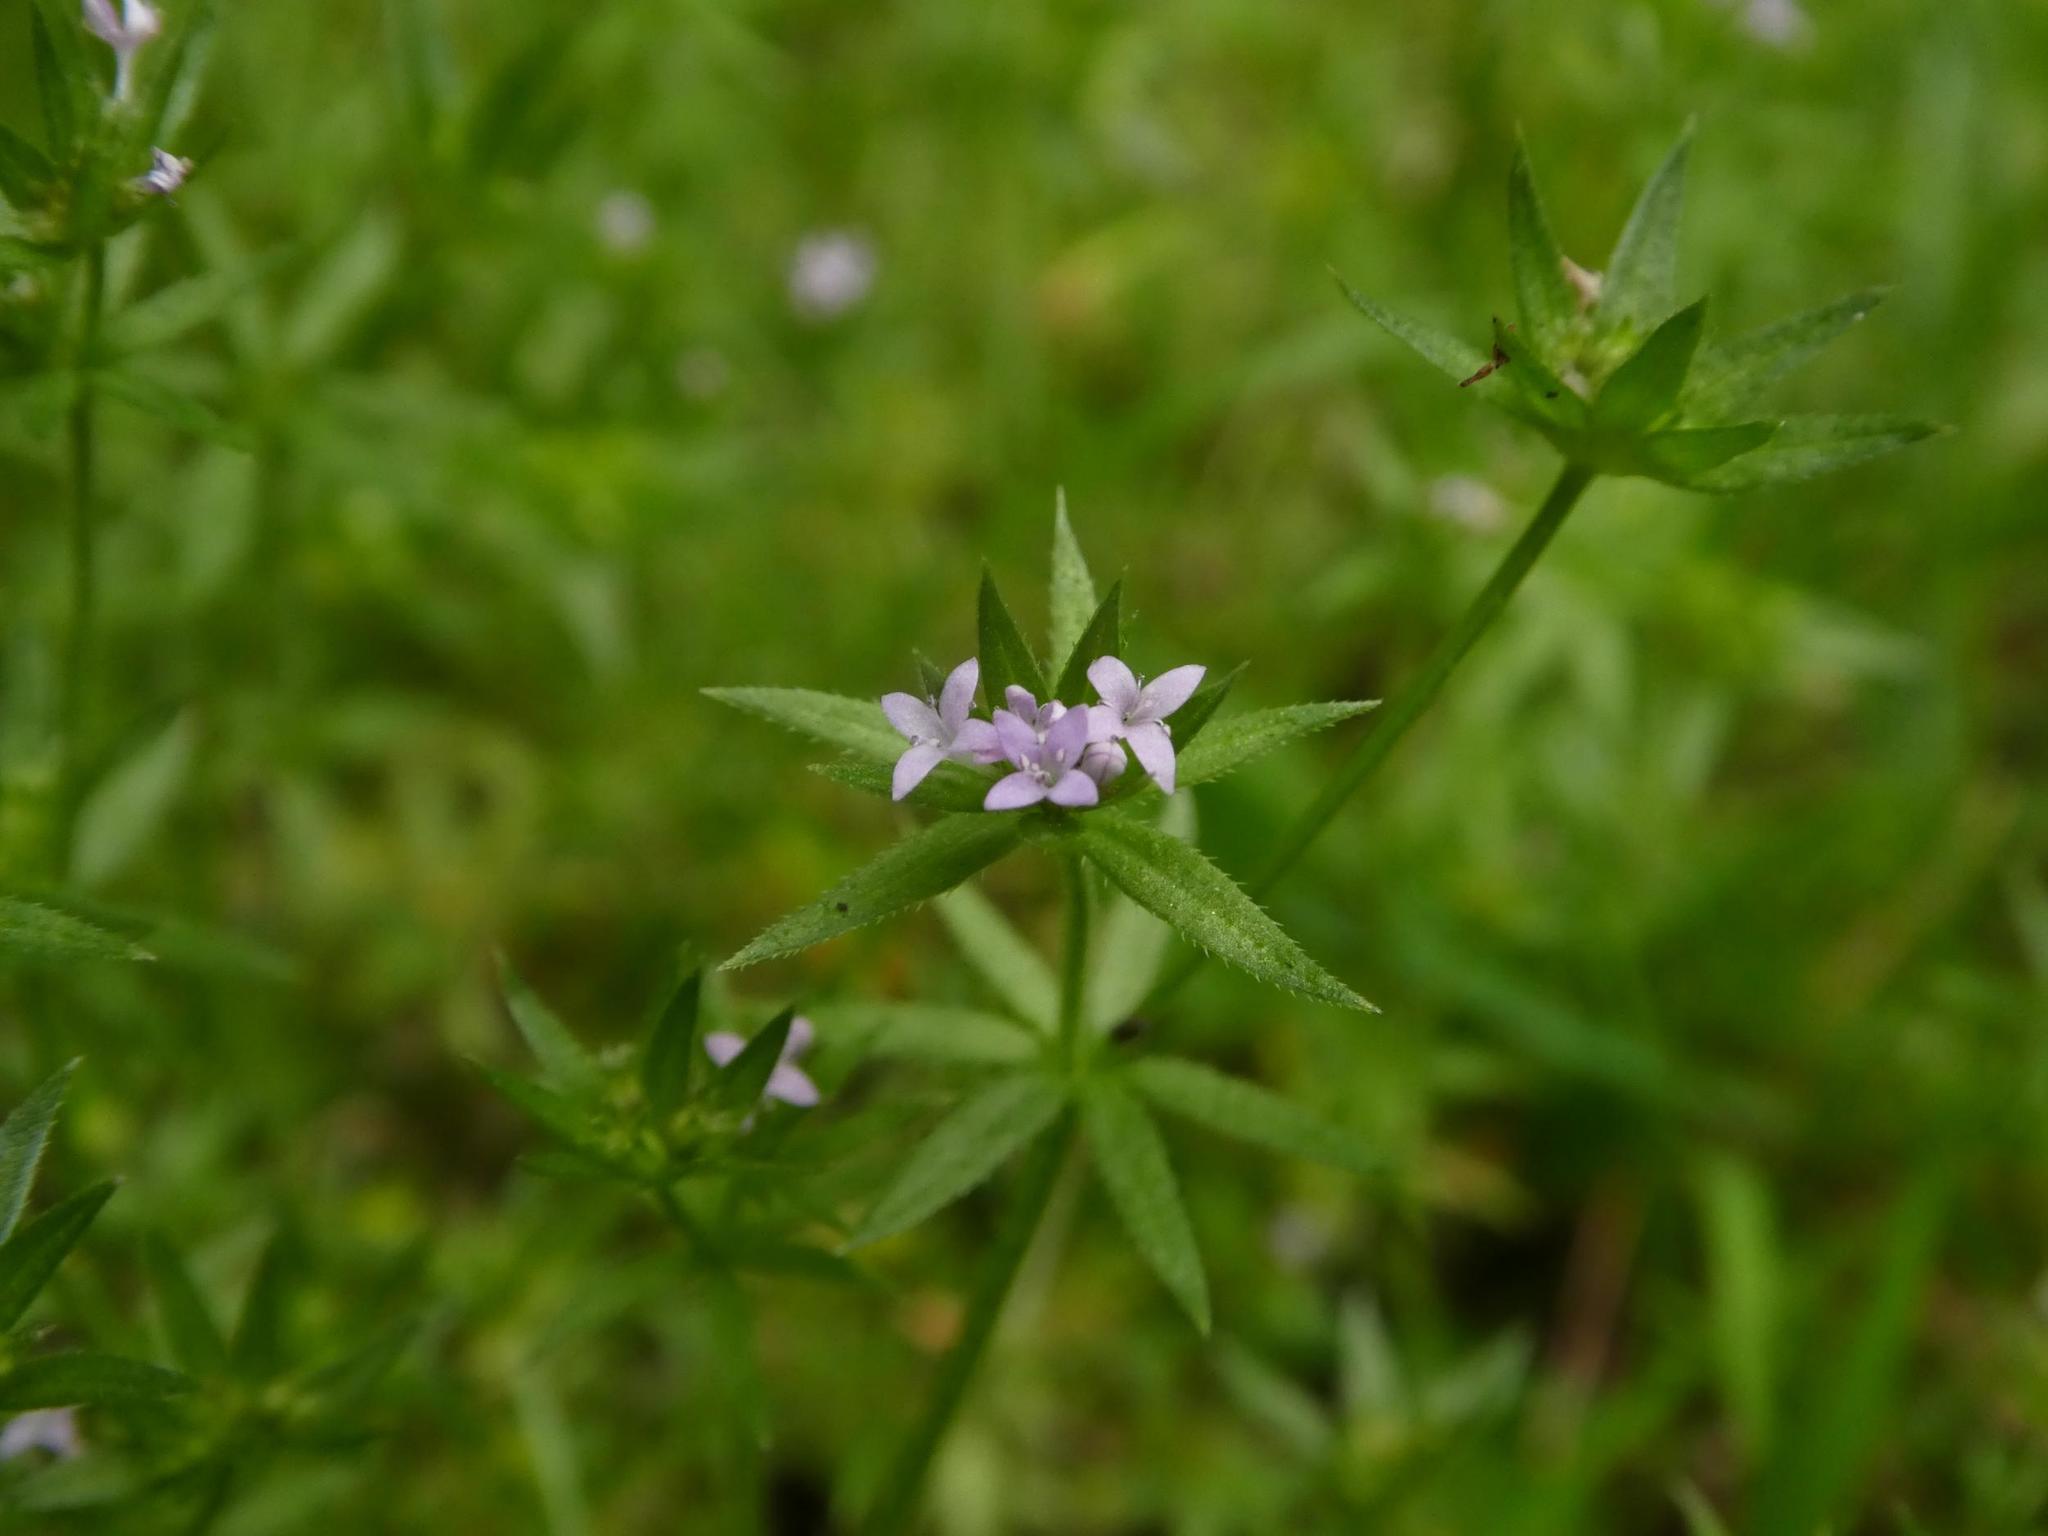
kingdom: Plantae
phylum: Tracheophyta
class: Magnoliopsida
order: Gentianales
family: Rubiaceae
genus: Galium
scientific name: Galium aparine
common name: Cleavers
